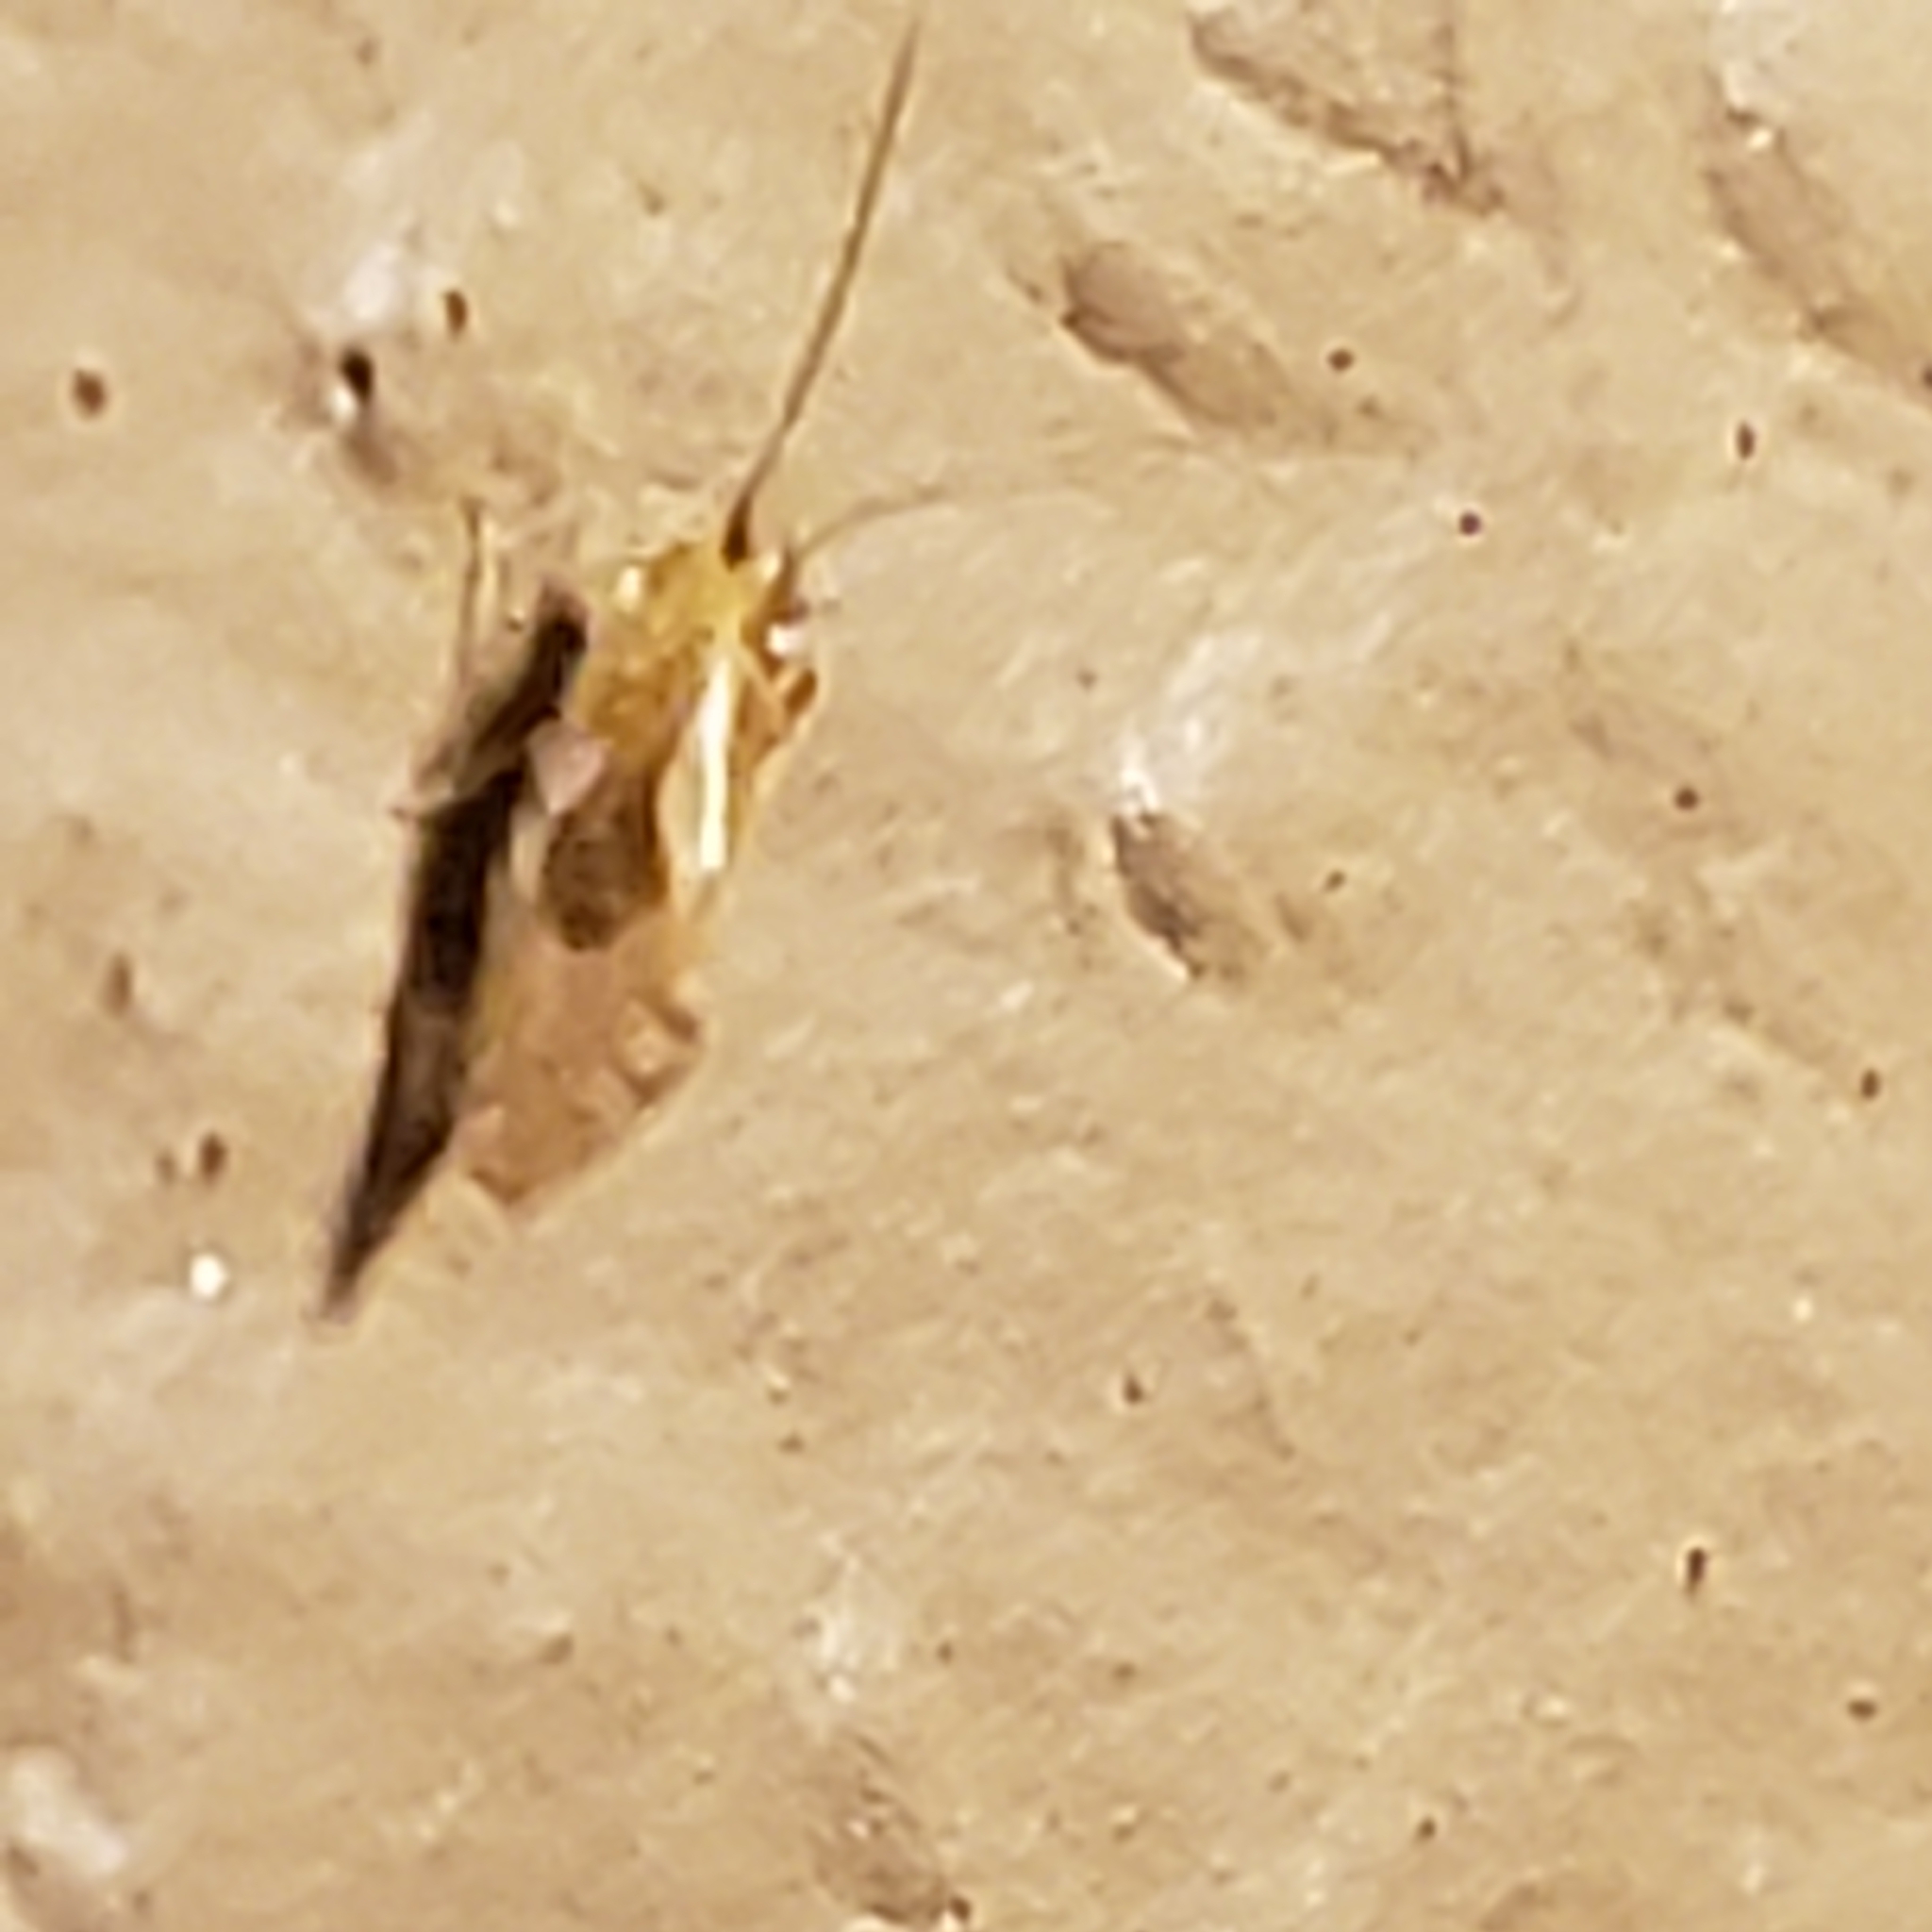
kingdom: Animalia
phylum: Arthropoda
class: Insecta
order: Psocodea
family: Caeciliusidae
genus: Valenzuela
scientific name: Valenzuela flavidus
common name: Yellow barklouse
